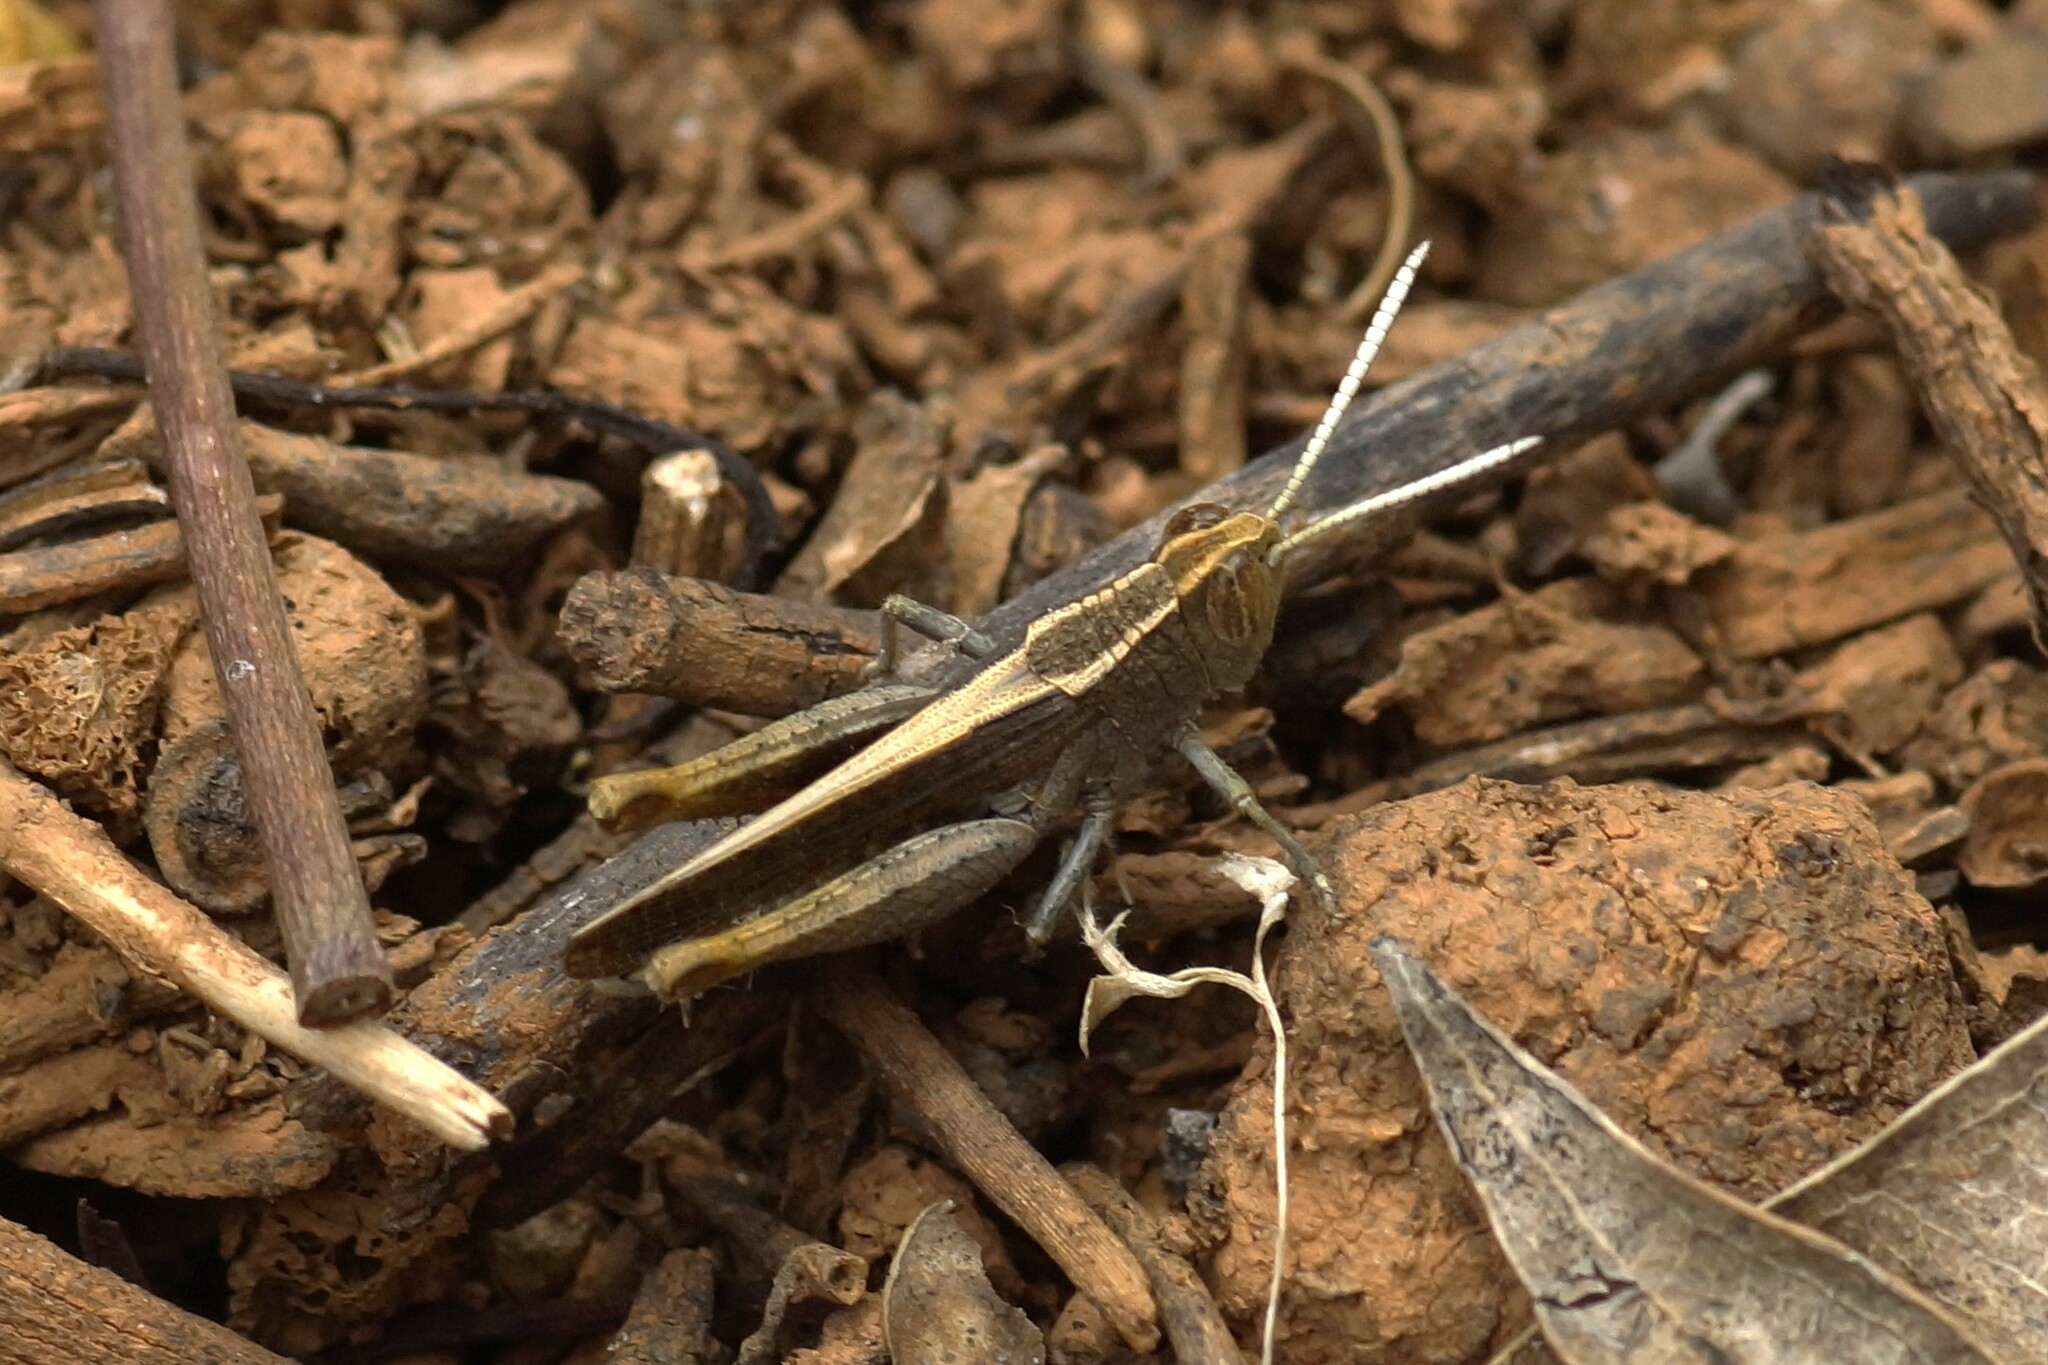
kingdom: Animalia
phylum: Arthropoda
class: Insecta
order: Orthoptera
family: Acrididae
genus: Apotropis
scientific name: Apotropis vittata
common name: Common striped grasshopper
